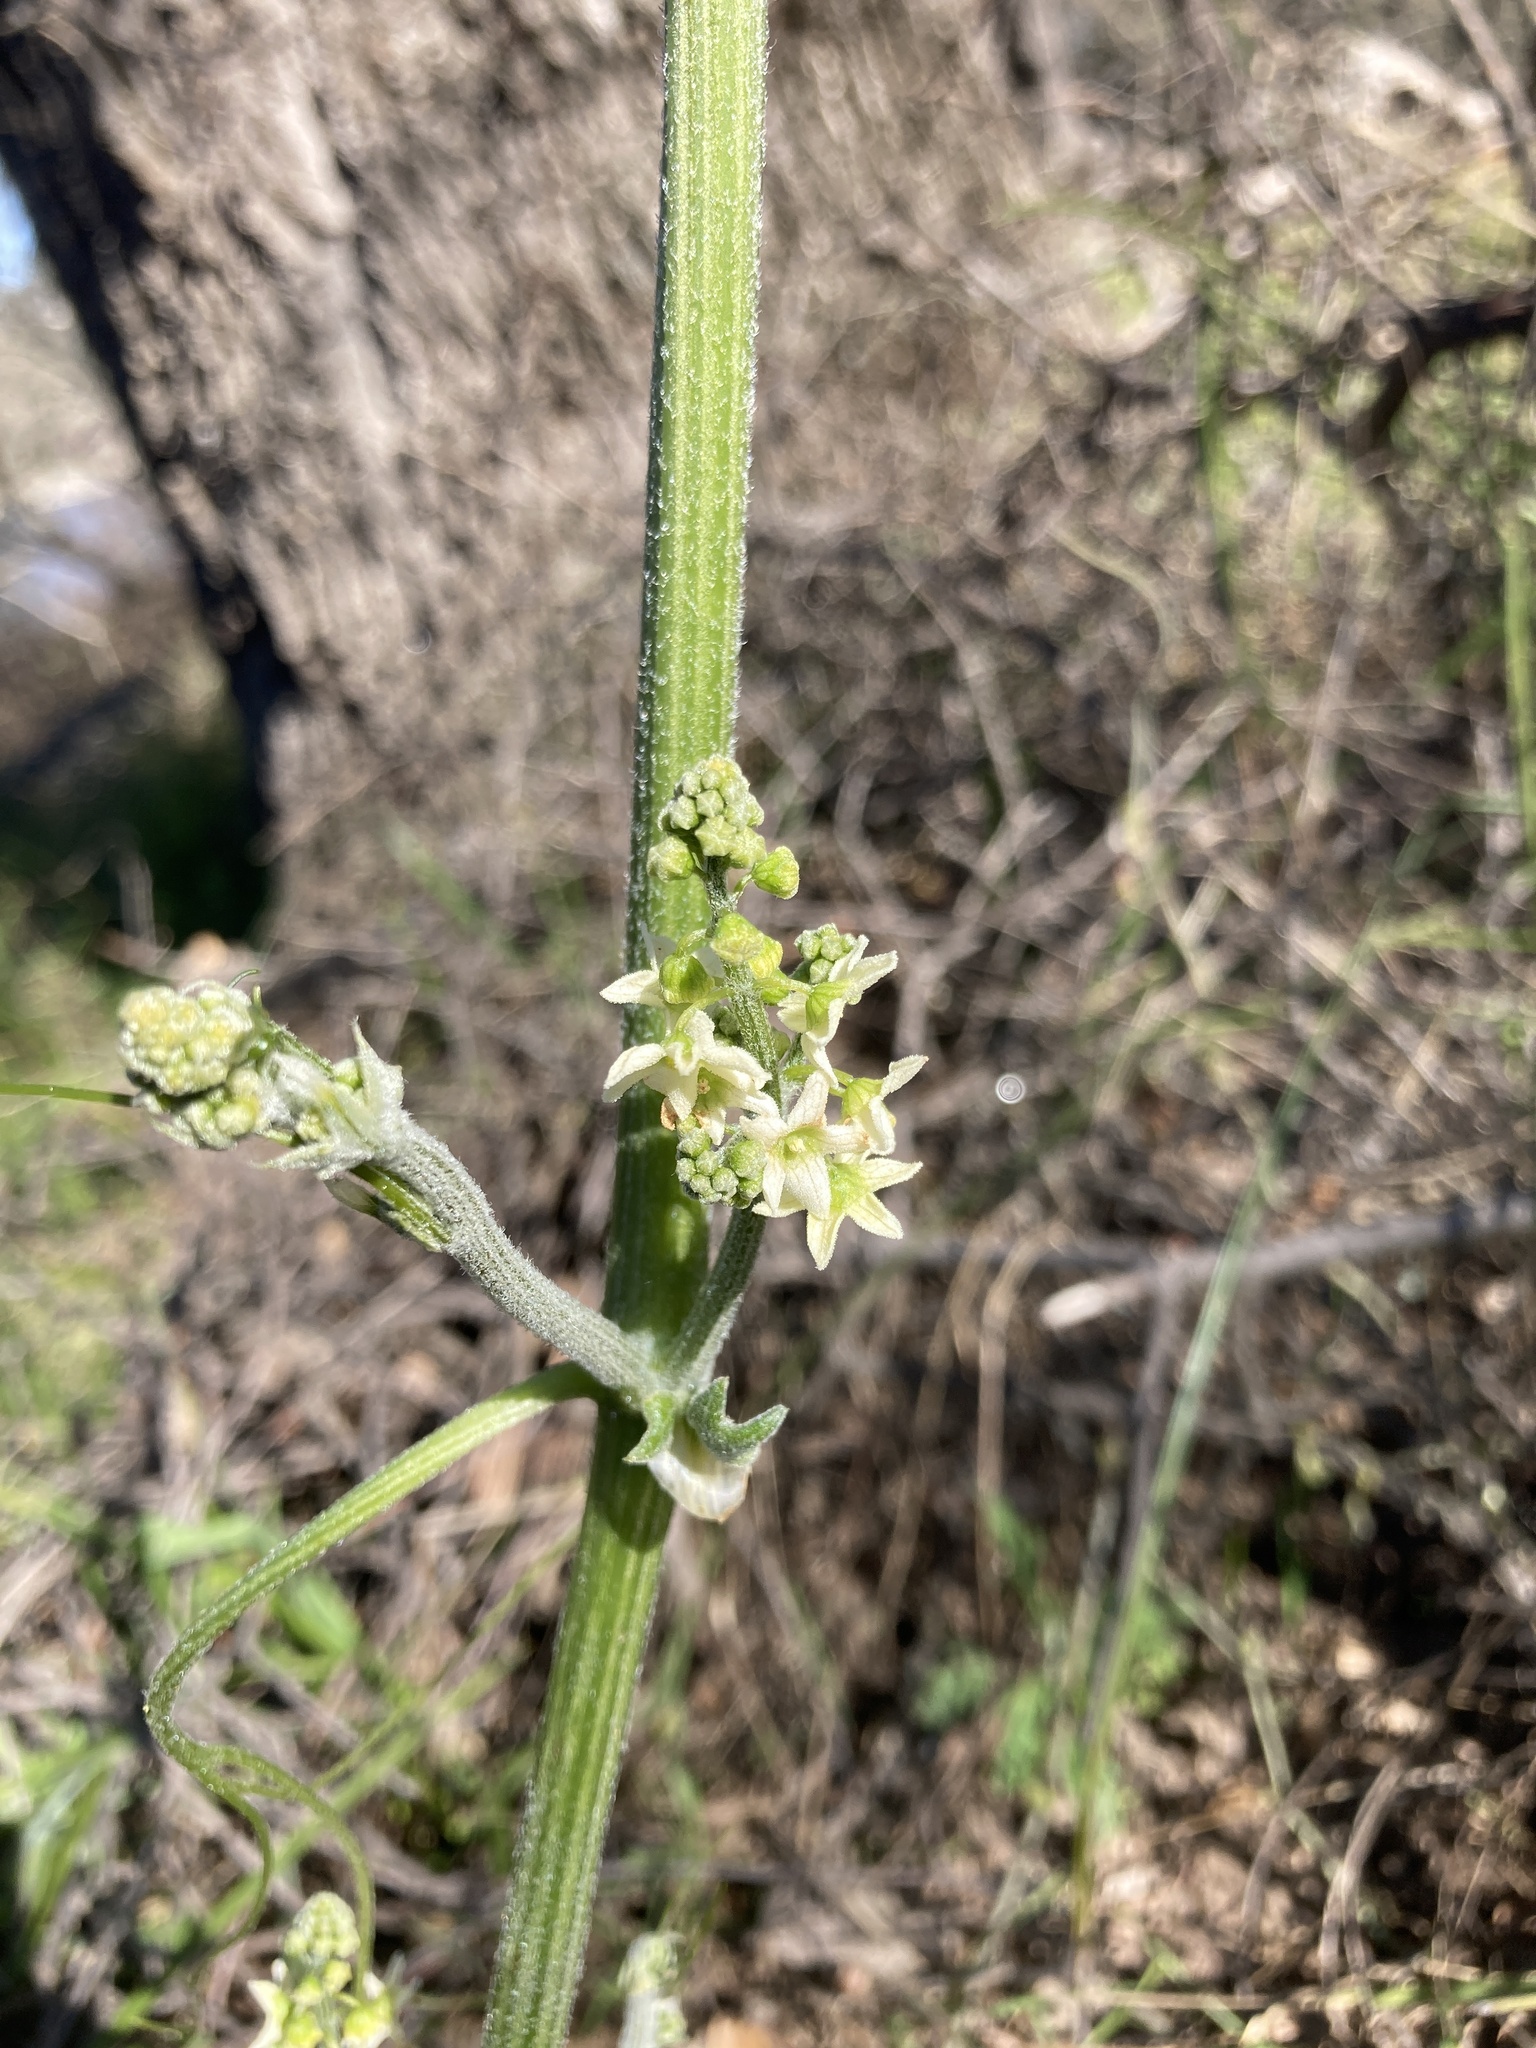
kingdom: Plantae
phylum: Tracheophyta
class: Magnoliopsida
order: Cucurbitales
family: Cucurbitaceae
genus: Marah
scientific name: Marah fabacea
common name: California manroot
